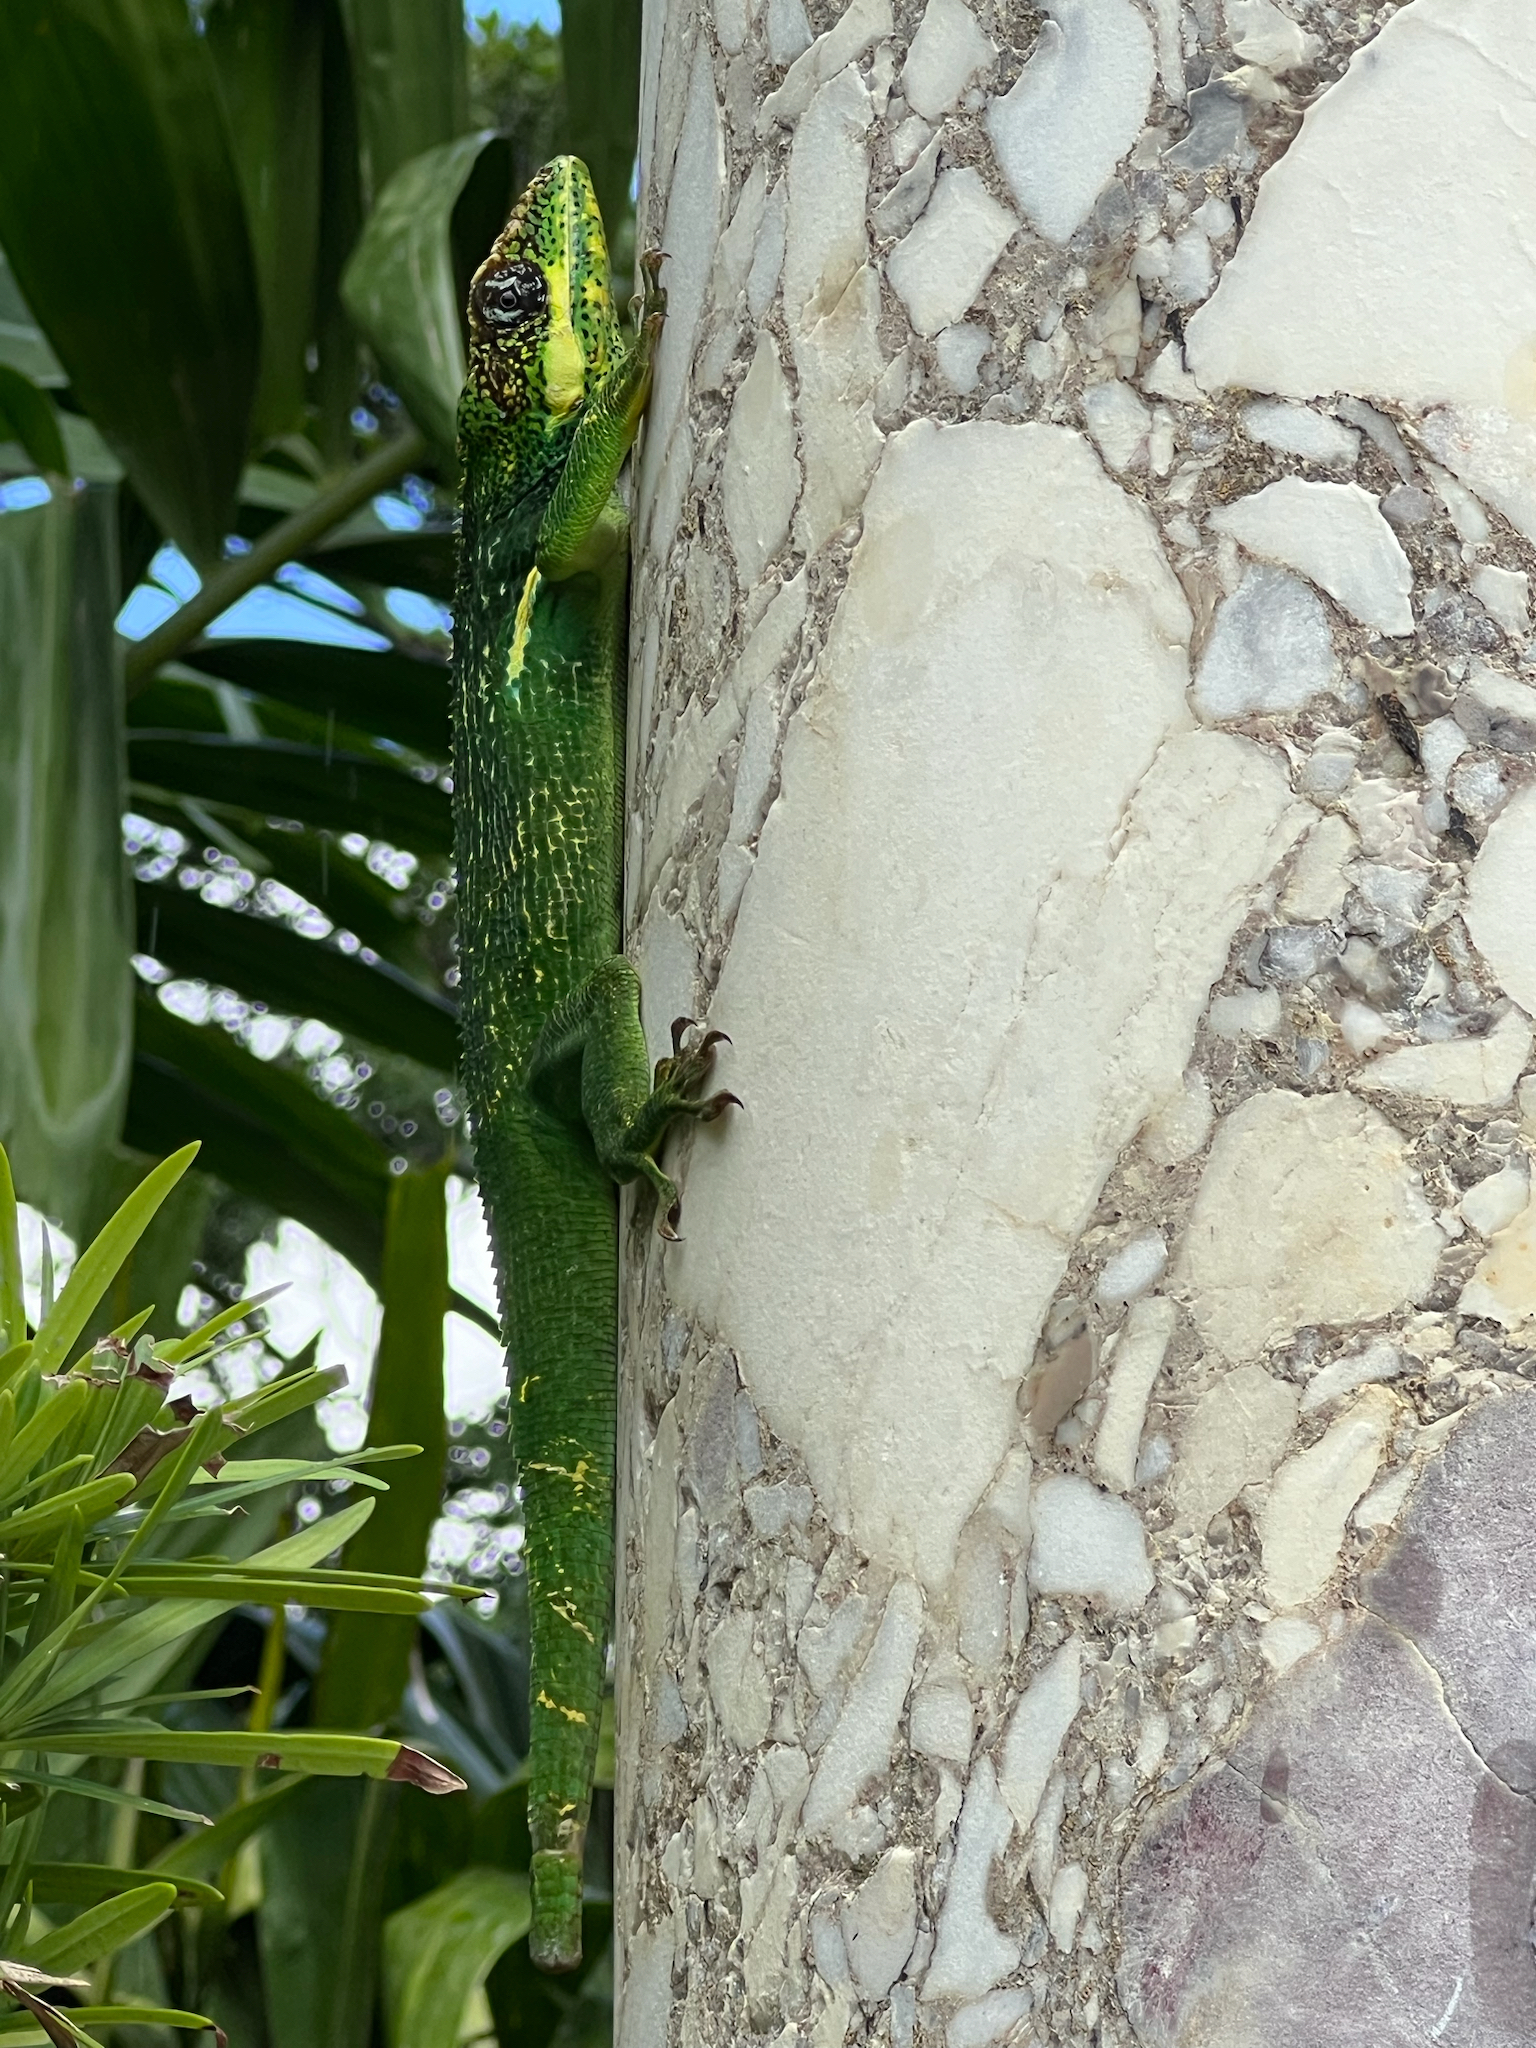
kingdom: Animalia
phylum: Chordata
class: Squamata
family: Dactyloidae
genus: Anolis
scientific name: Anolis equestris
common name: Knight anole
